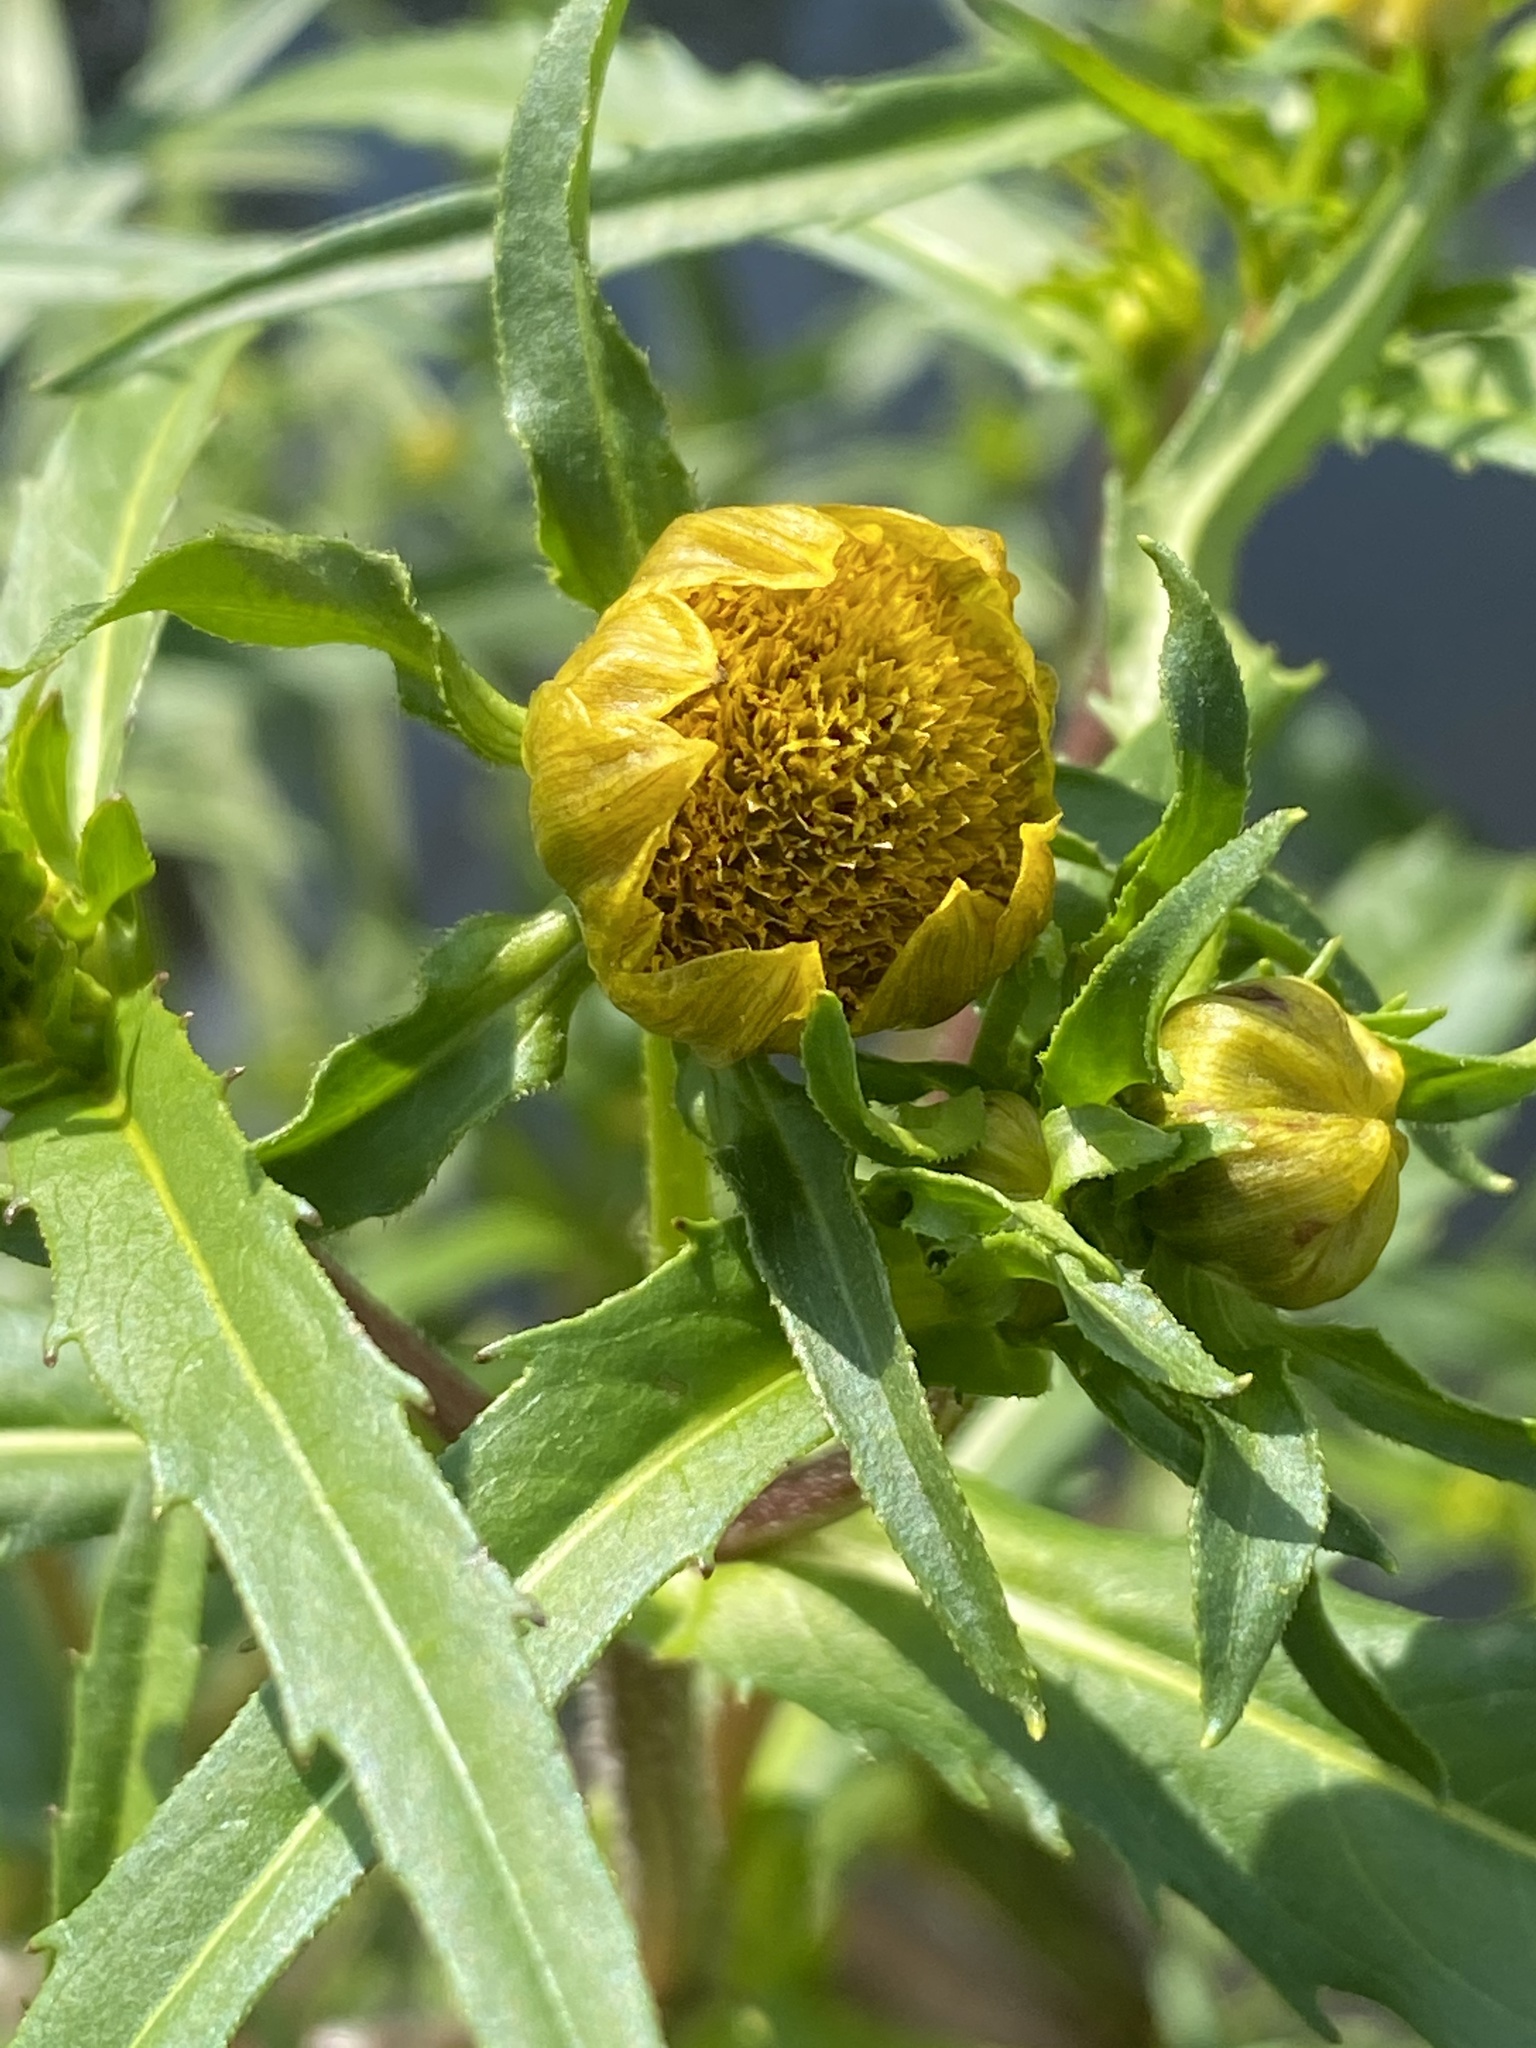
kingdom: Plantae
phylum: Tracheophyta
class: Magnoliopsida
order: Asterales
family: Asteraceae
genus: Bidens
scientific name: Bidens cernua
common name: Nodding bur-marigold
